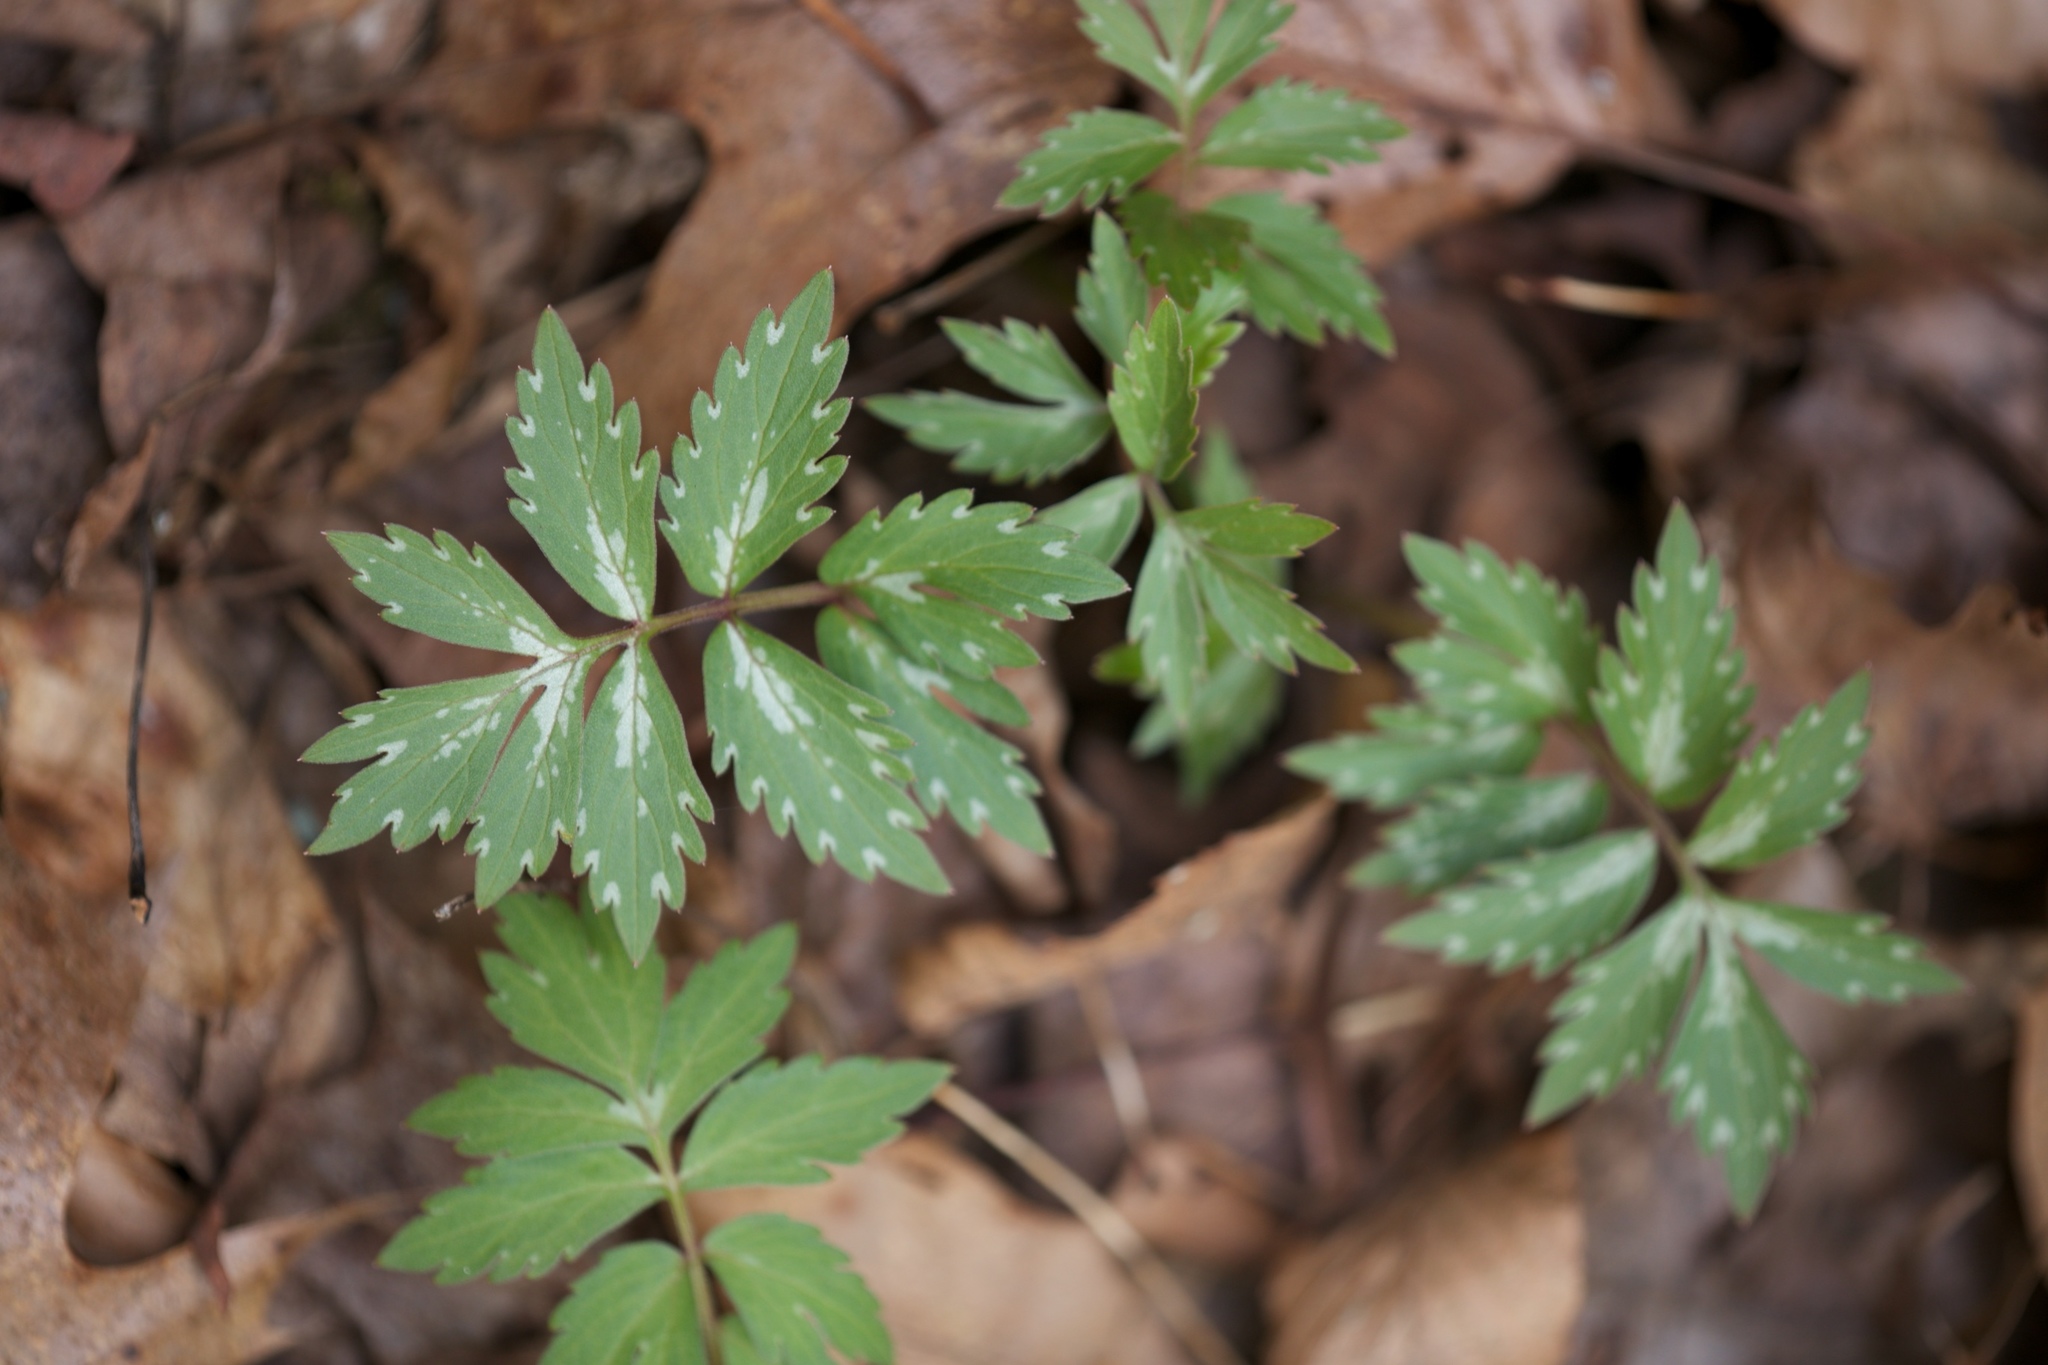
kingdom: Plantae
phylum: Tracheophyta
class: Magnoliopsida
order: Boraginales
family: Hydrophyllaceae
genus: Hydrophyllum
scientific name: Hydrophyllum virginianum
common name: Virginia waterleaf
